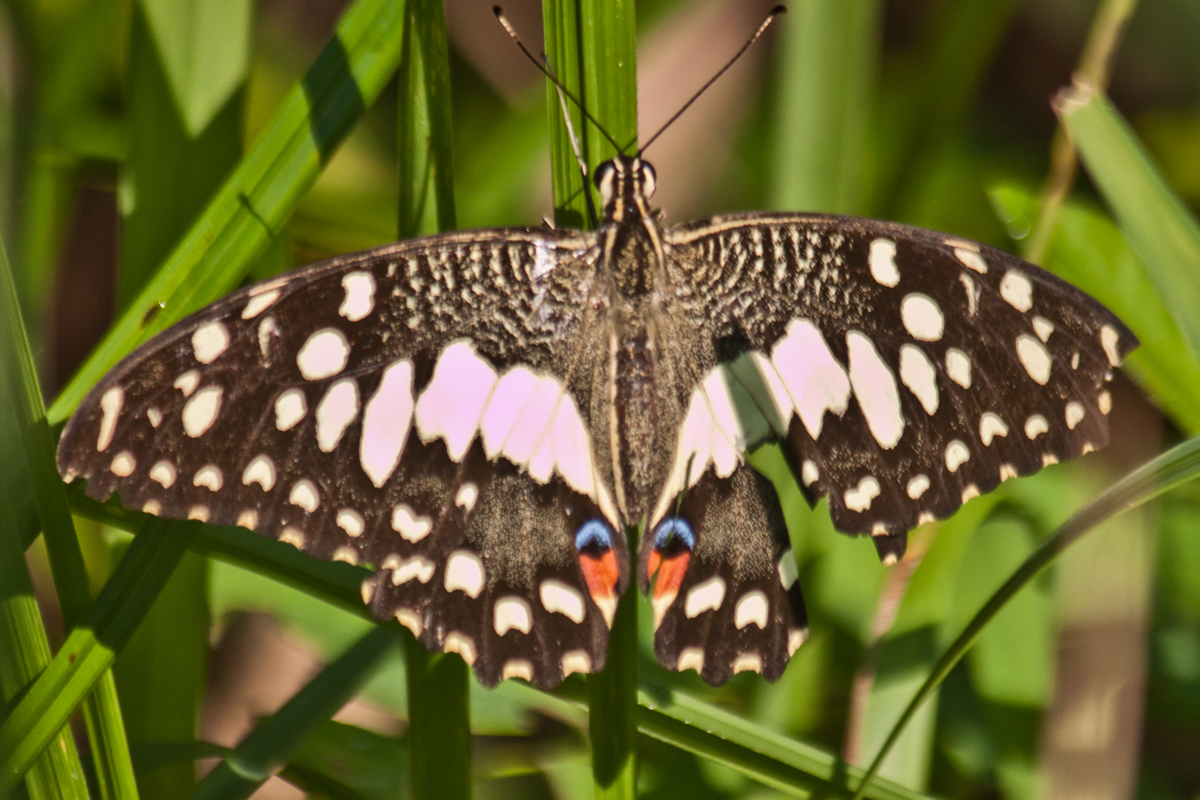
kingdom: Animalia
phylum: Arthropoda
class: Insecta
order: Lepidoptera
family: Papilionidae
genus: Papilio
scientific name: Papilio demoleus
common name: Lime butterfly
